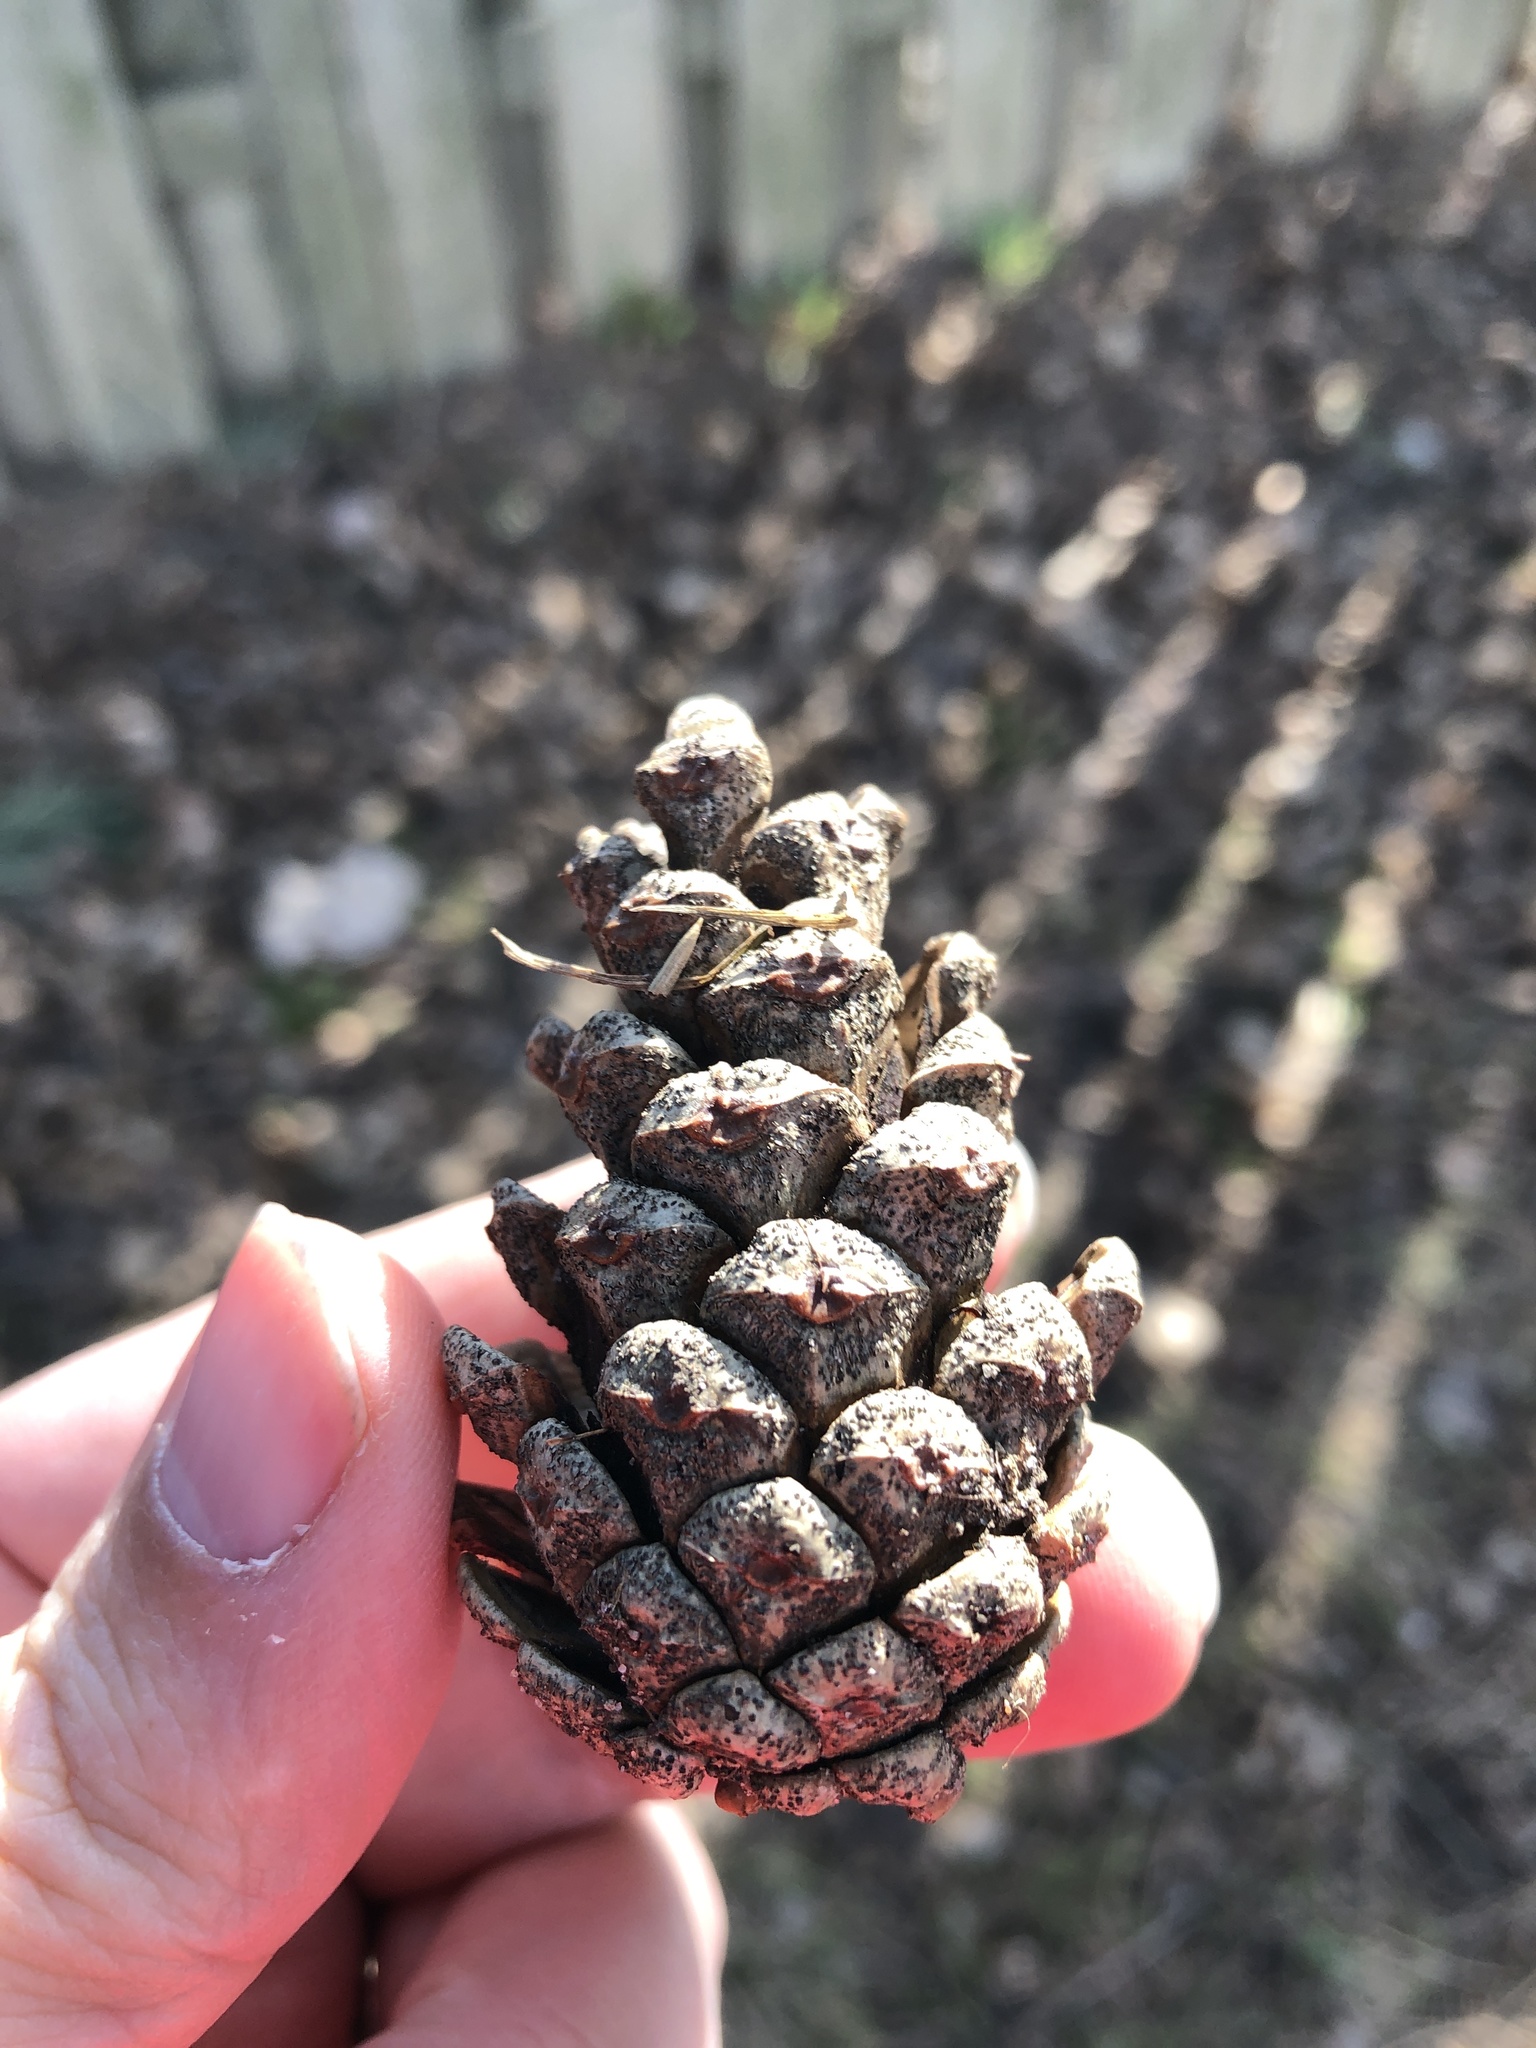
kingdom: Plantae
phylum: Tracheophyta
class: Pinopsida
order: Pinales
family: Pinaceae
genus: Pinus
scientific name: Pinus nigra
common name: Austrian pine
